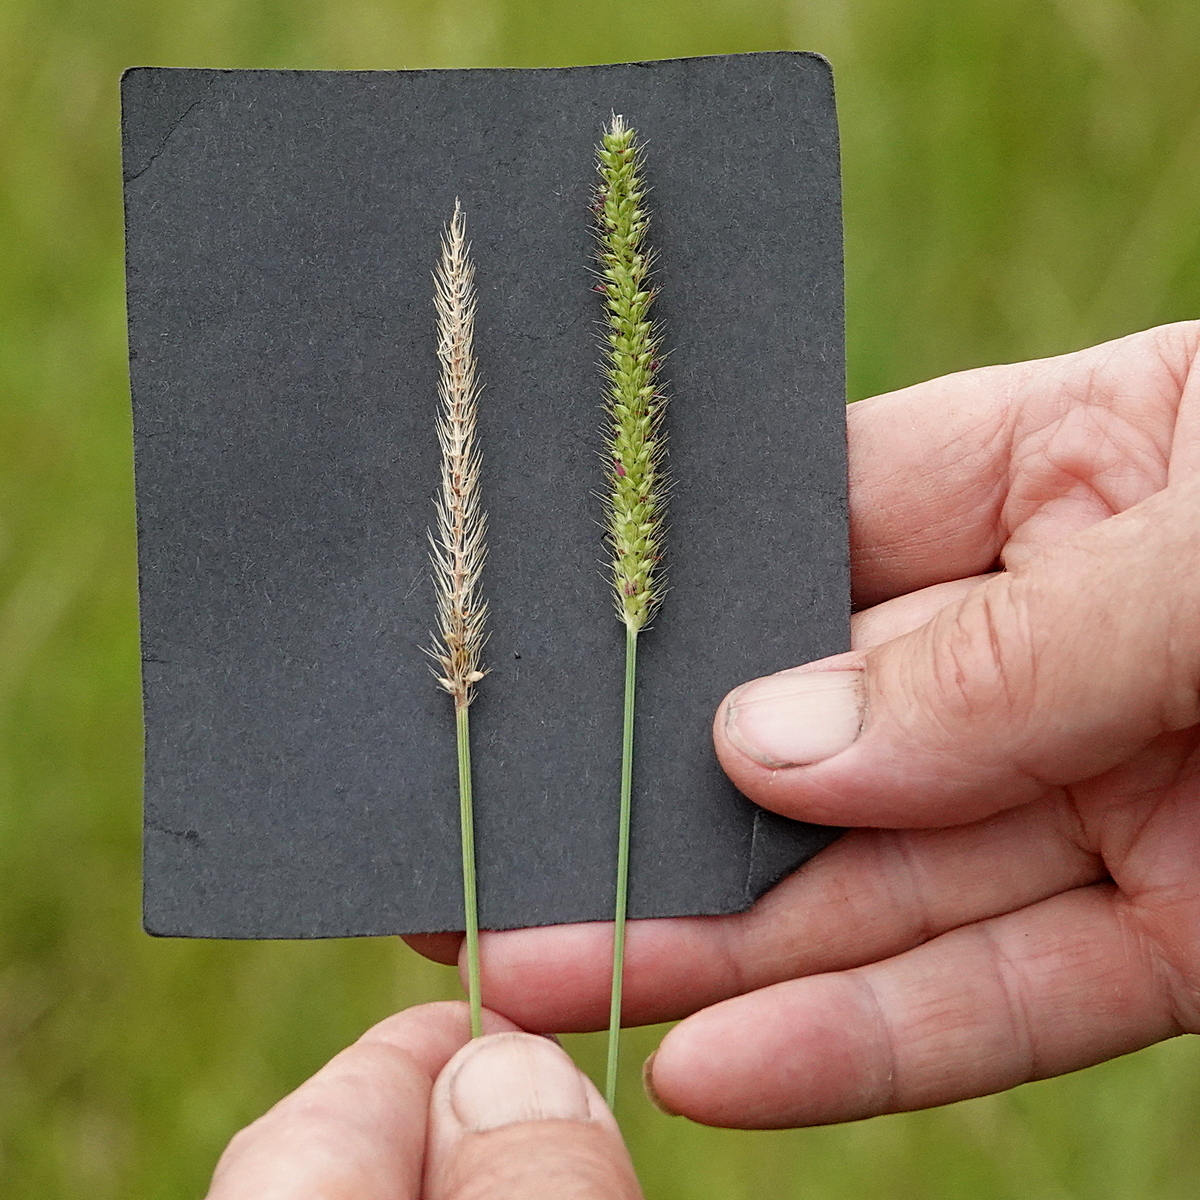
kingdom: Plantae
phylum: Tracheophyta
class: Liliopsida
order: Poales
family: Poaceae
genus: Setaria
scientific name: Setaria parviflora
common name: Knotroot bristle-grass
